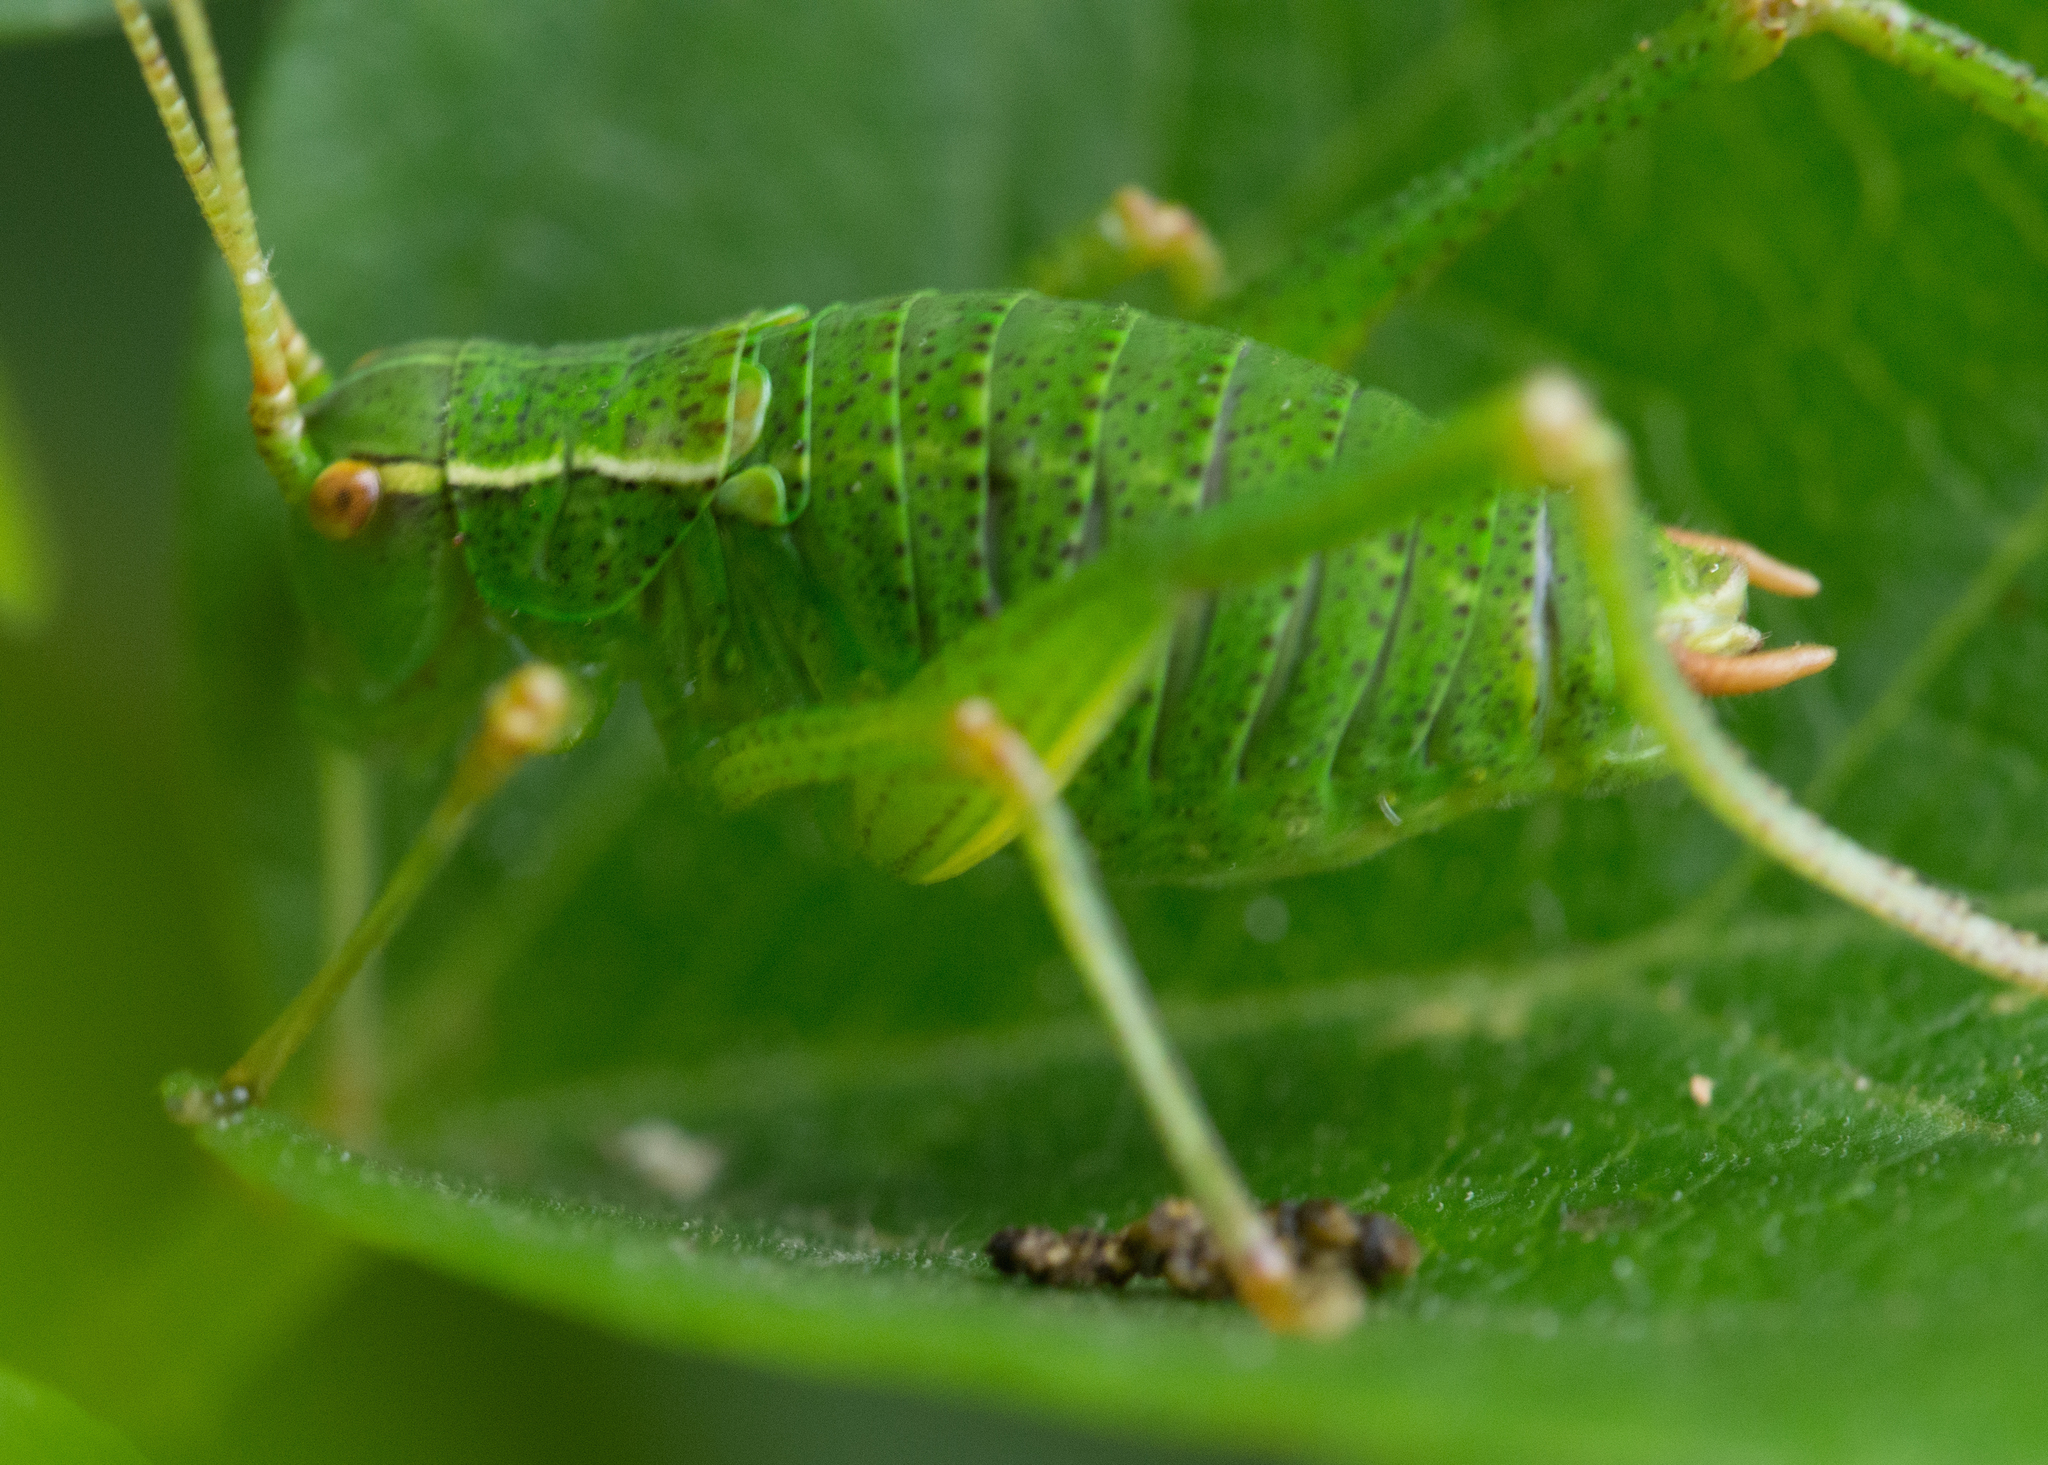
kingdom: Animalia
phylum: Arthropoda
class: Insecta
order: Orthoptera
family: Tettigoniidae
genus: Barbitistes
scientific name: Barbitistes serricauda
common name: Saw-tailed bush-cricket
